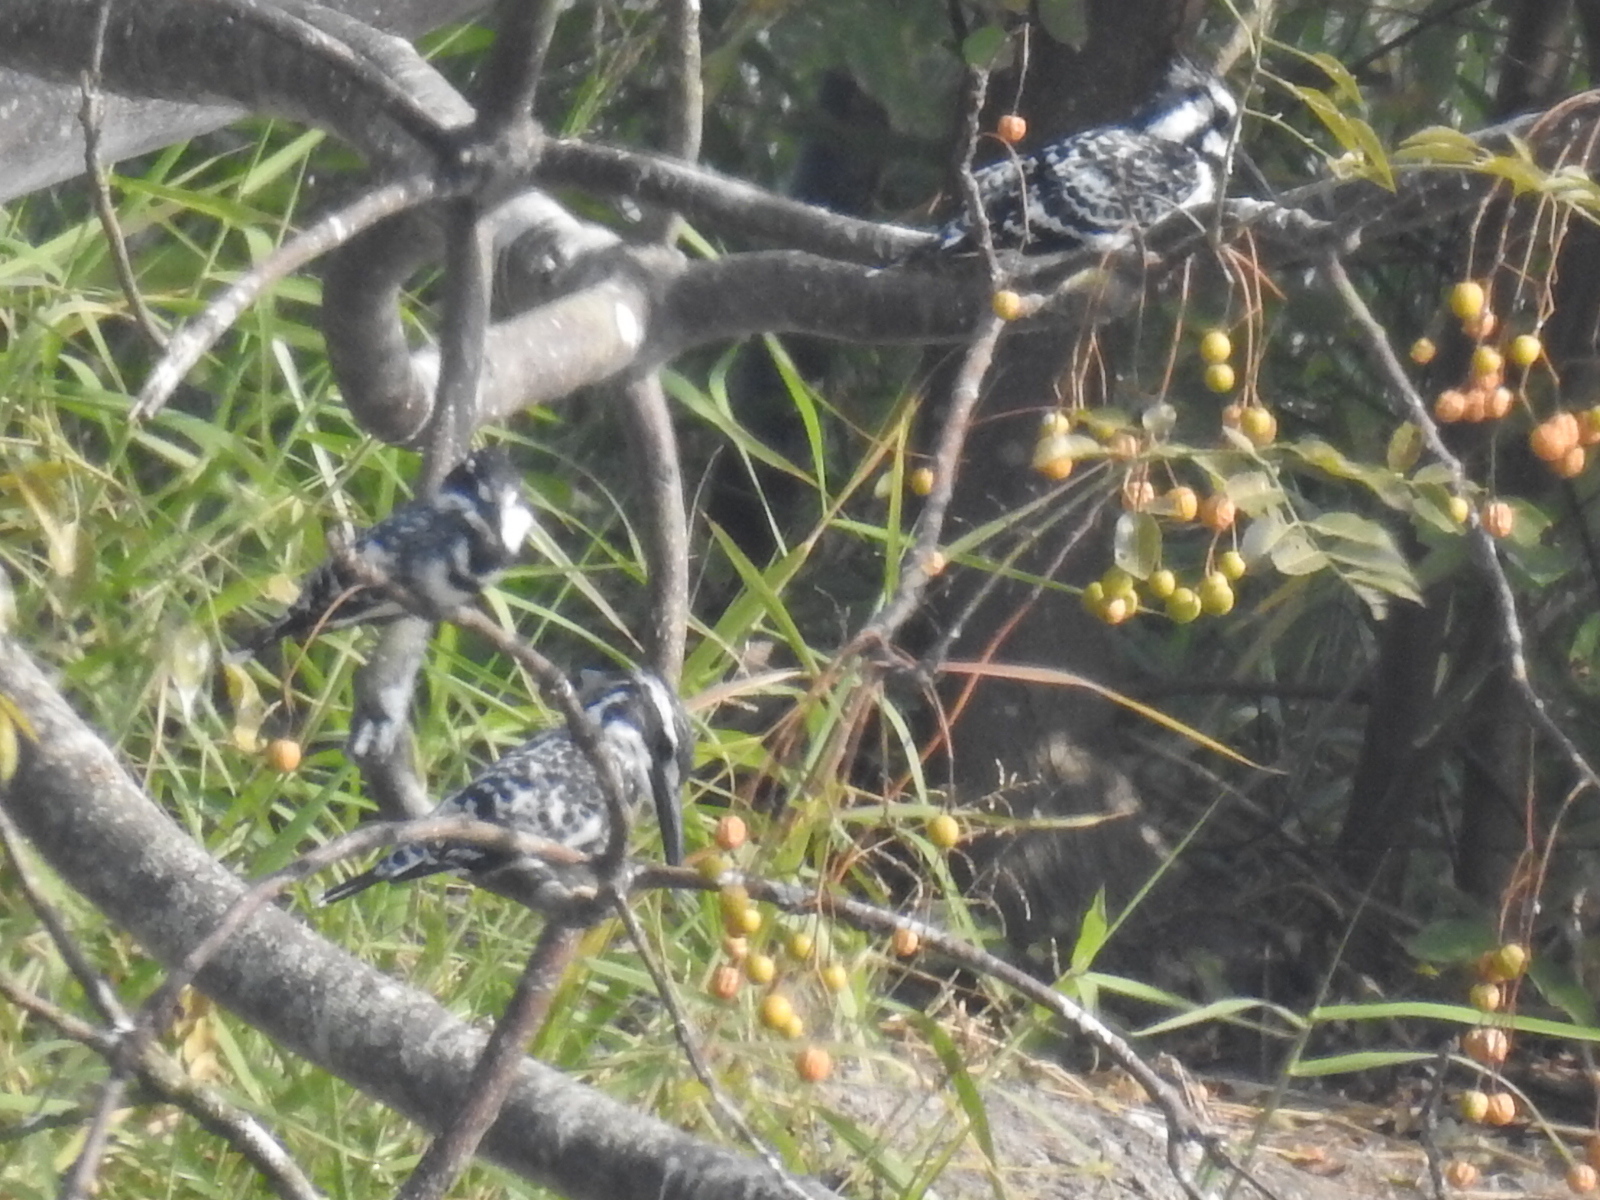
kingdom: Animalia
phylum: Chordata
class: Aves
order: Coraciiformes
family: Alcedinidae
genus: Ceryle
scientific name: Ceryle rudis
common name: Pied kingfisher
